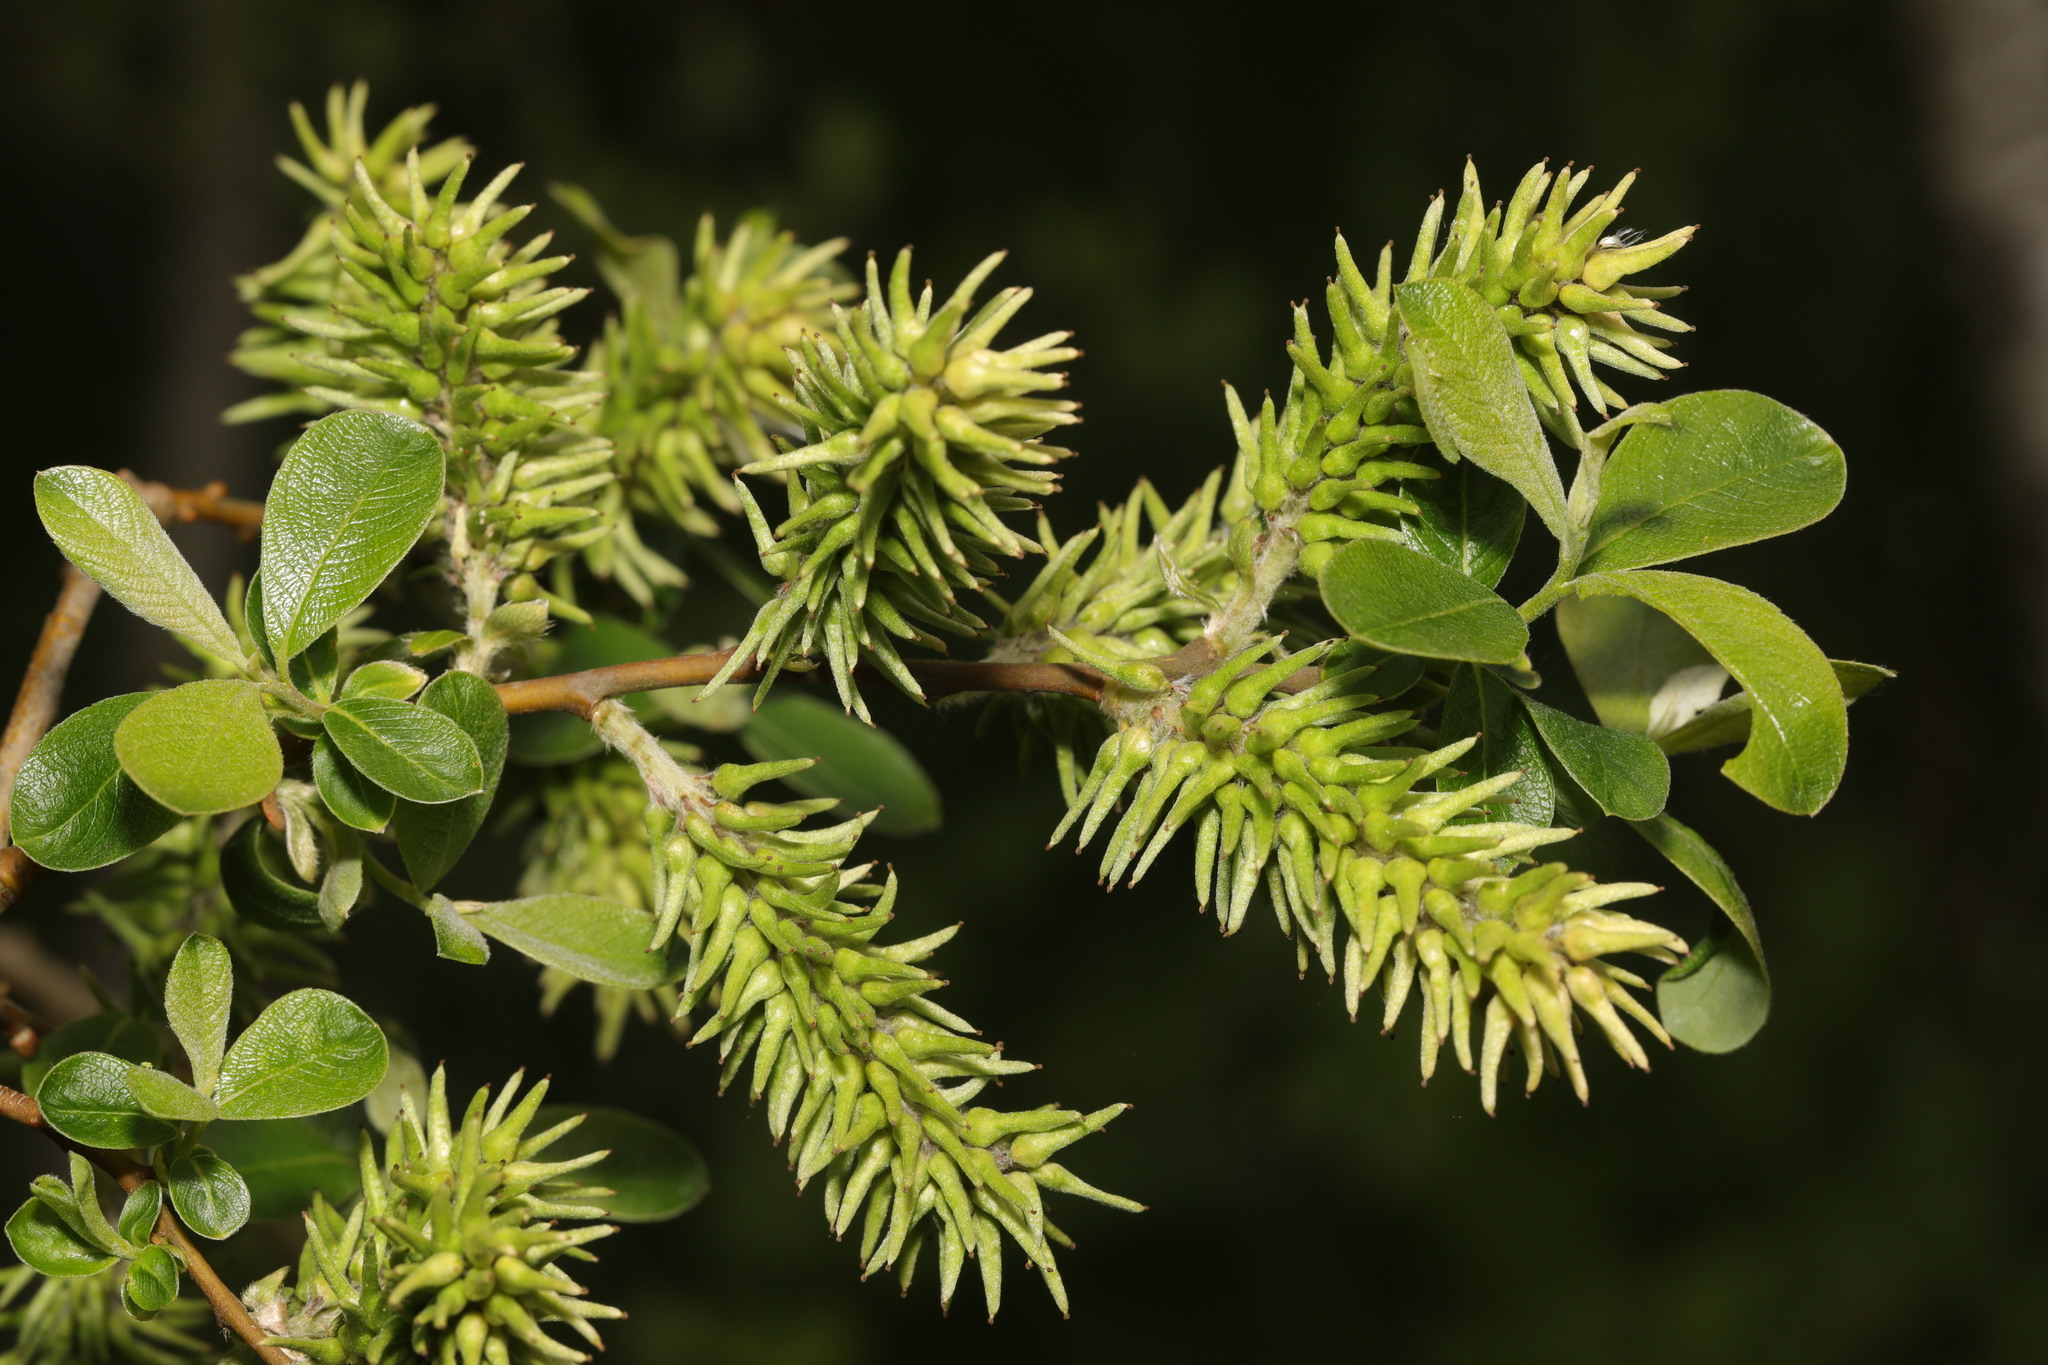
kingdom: Plantae
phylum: Tracheophyta
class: Magnoliopsida
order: Malpighiales
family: Salicaceae
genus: Salix
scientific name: Salix cinerea
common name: Common sallow
